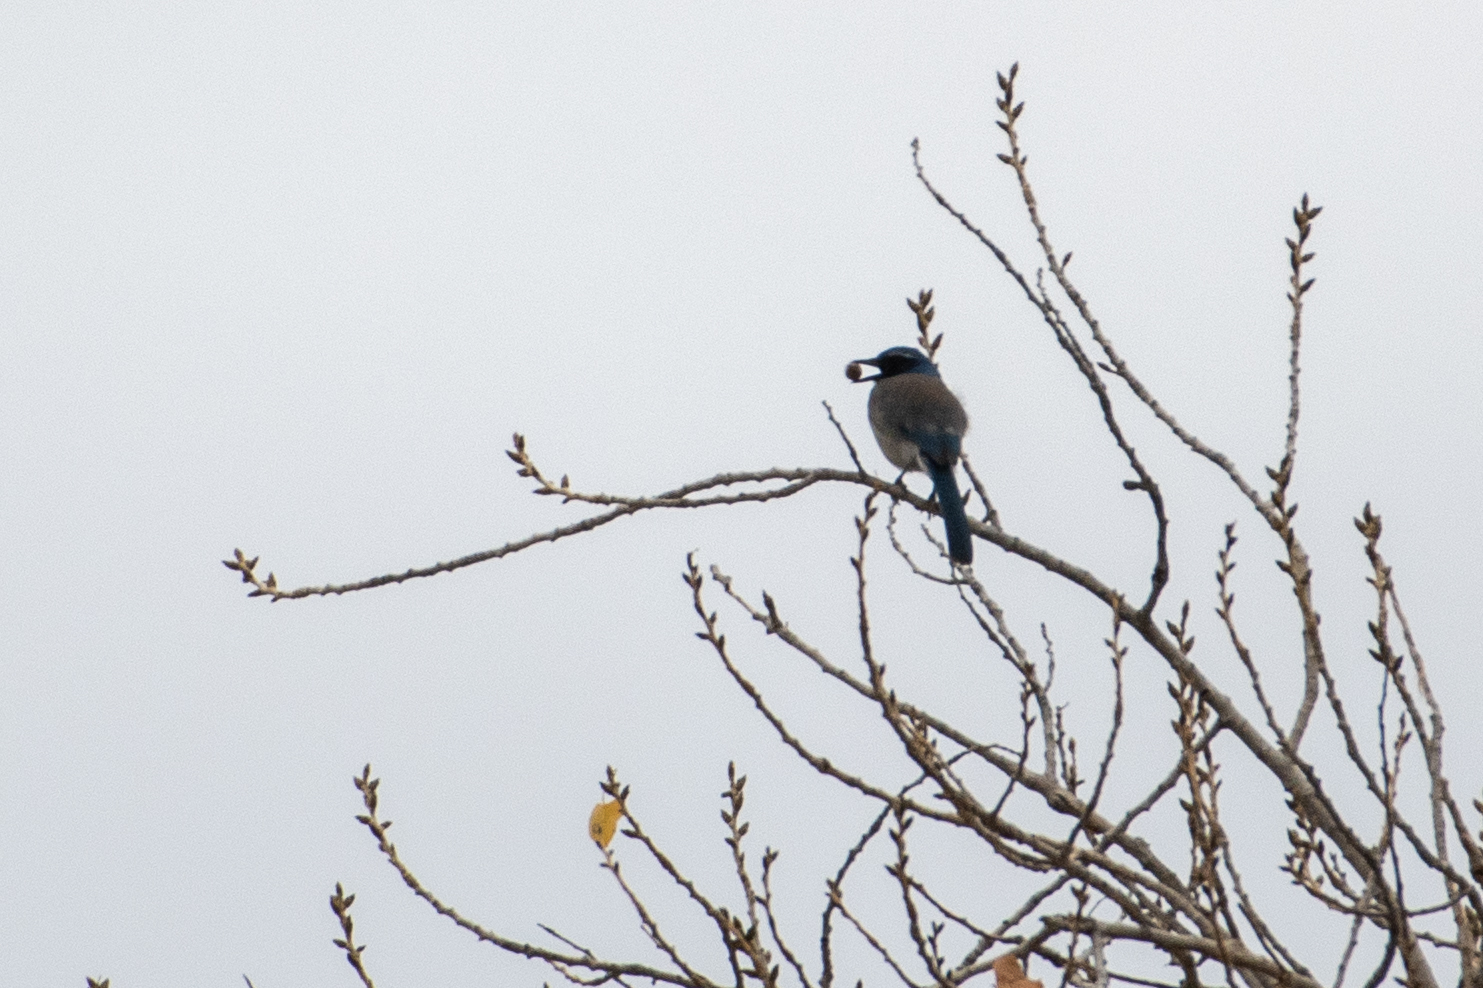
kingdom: Animalia
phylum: Chordata
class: Aves
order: Passeriformes
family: Corvidae
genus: Aphelocoma
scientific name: Aphelocoma californica
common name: California scrub-jay
